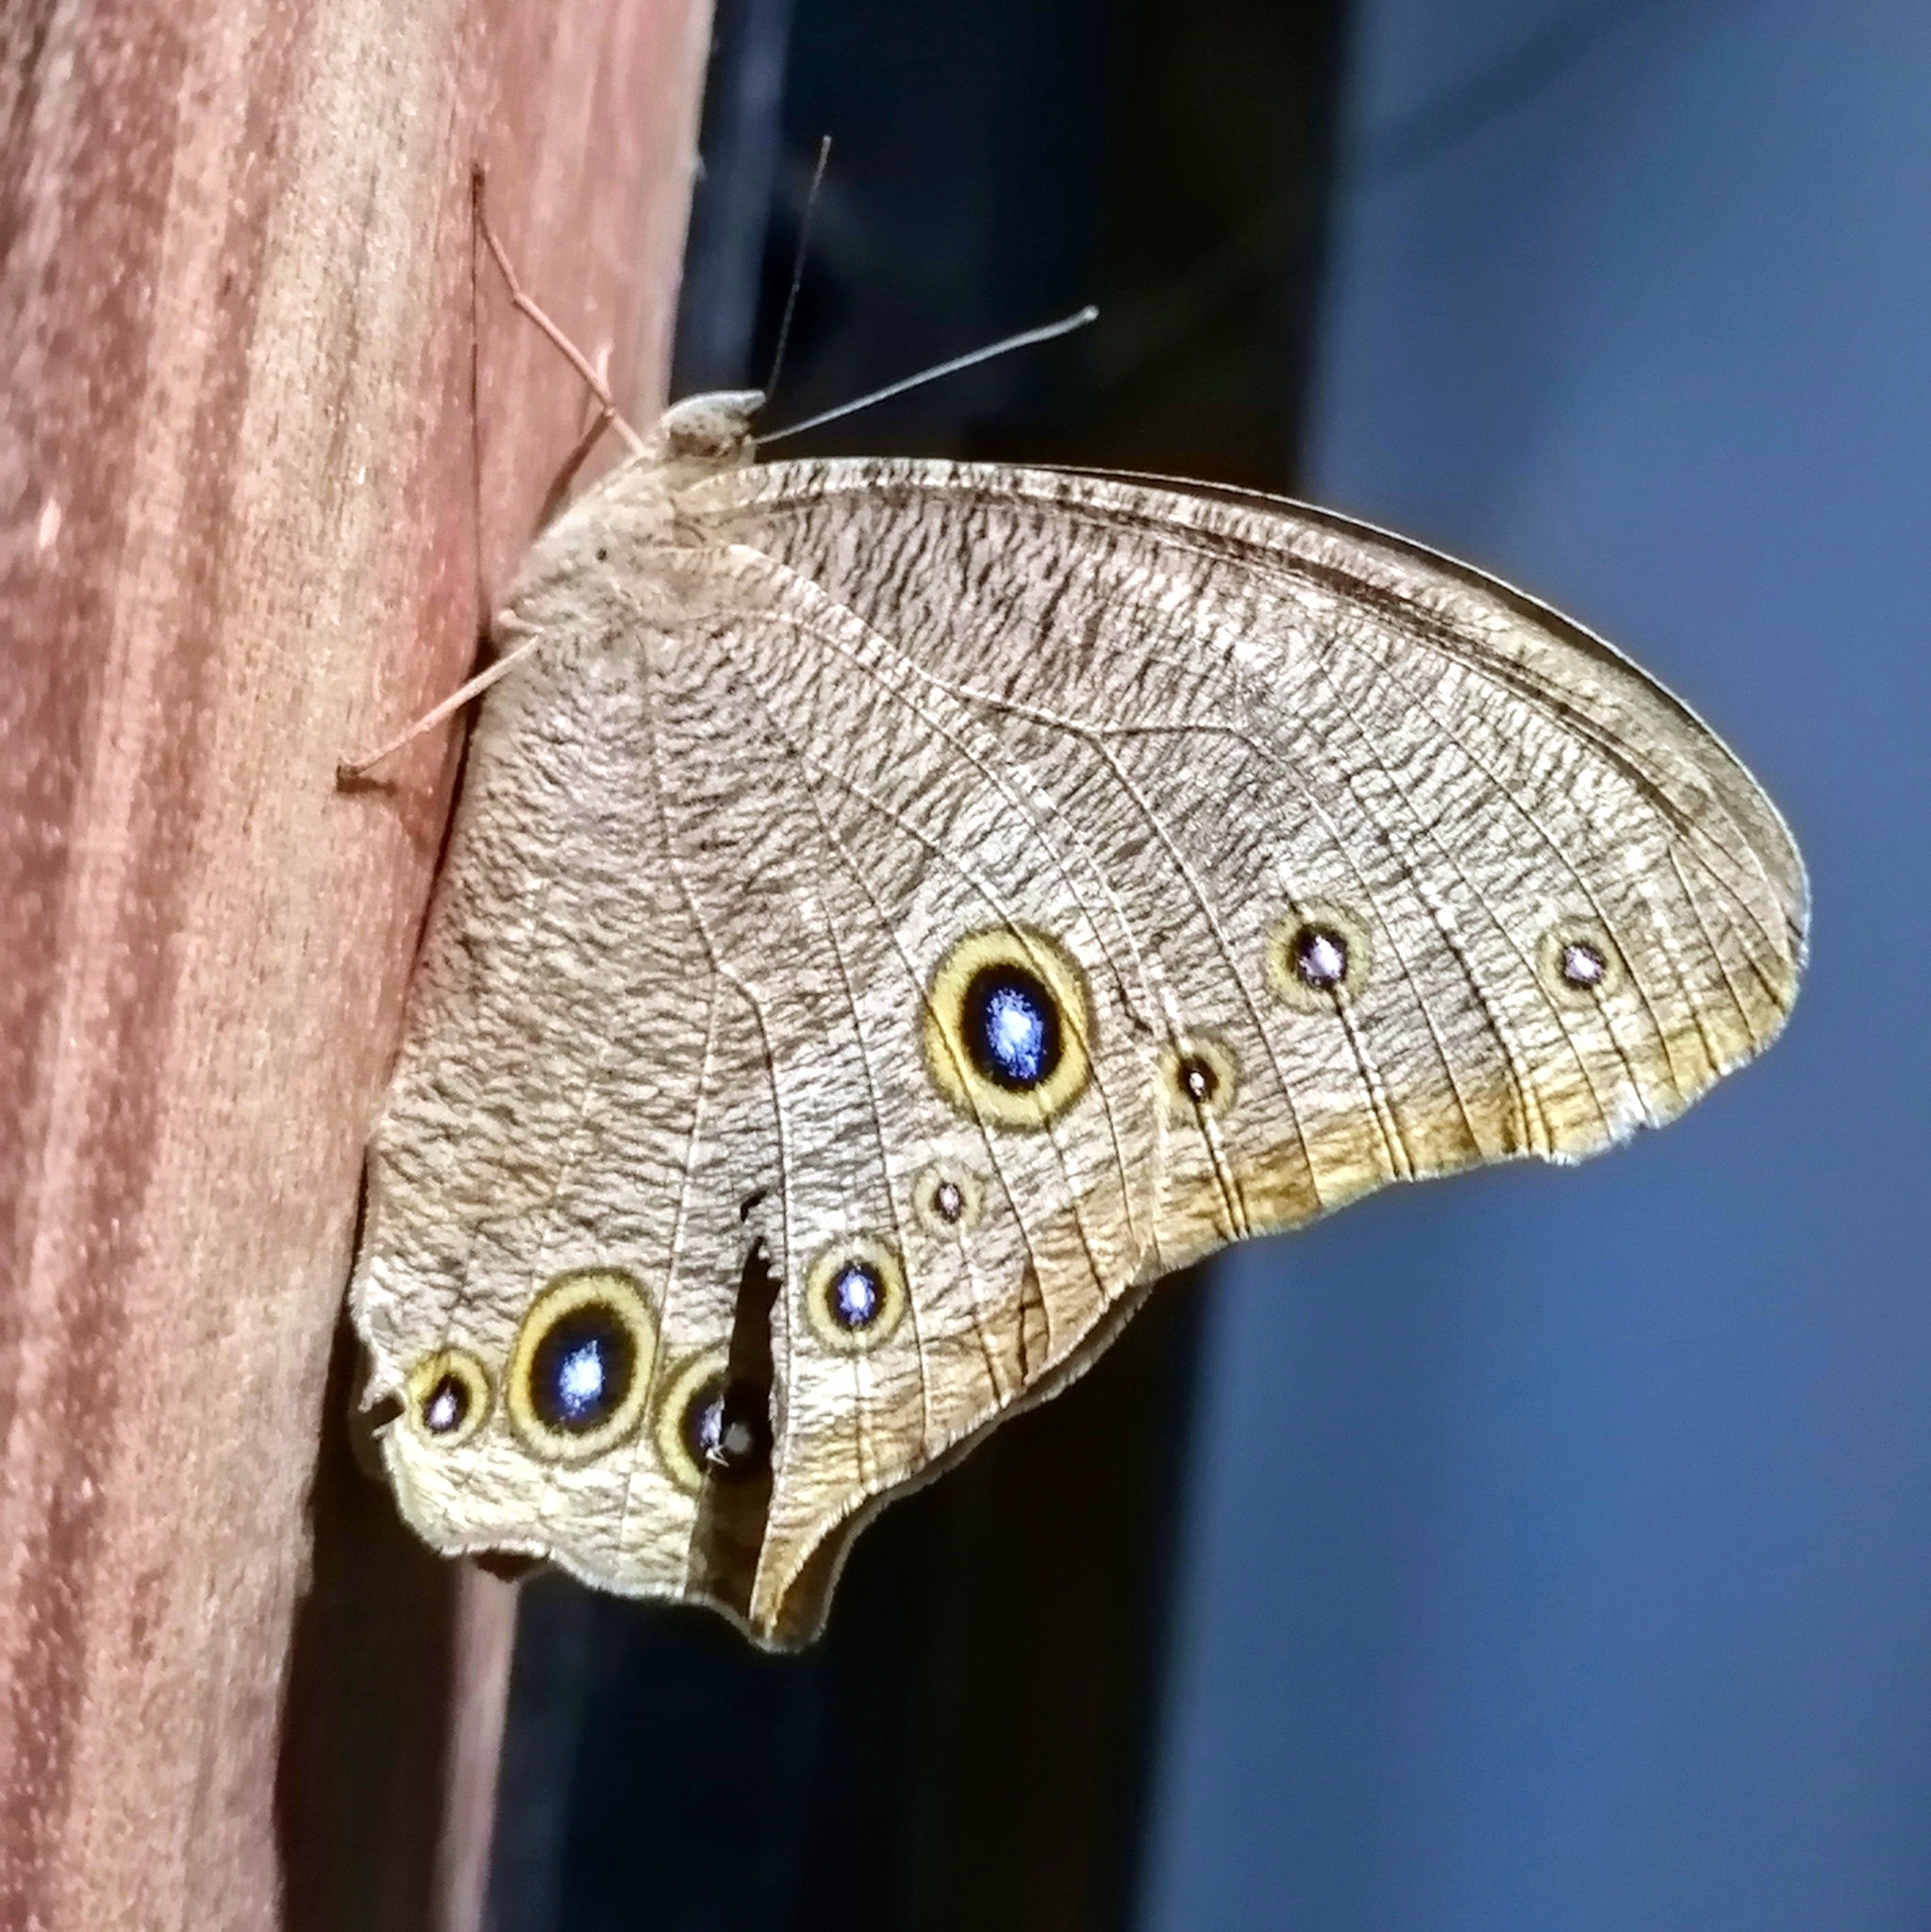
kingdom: Animalia
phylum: Arthropoda
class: Insecta
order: Lepidoptera
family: Nymphalidae
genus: Melanitis
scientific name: Melanitis leda
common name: Twilight brown
